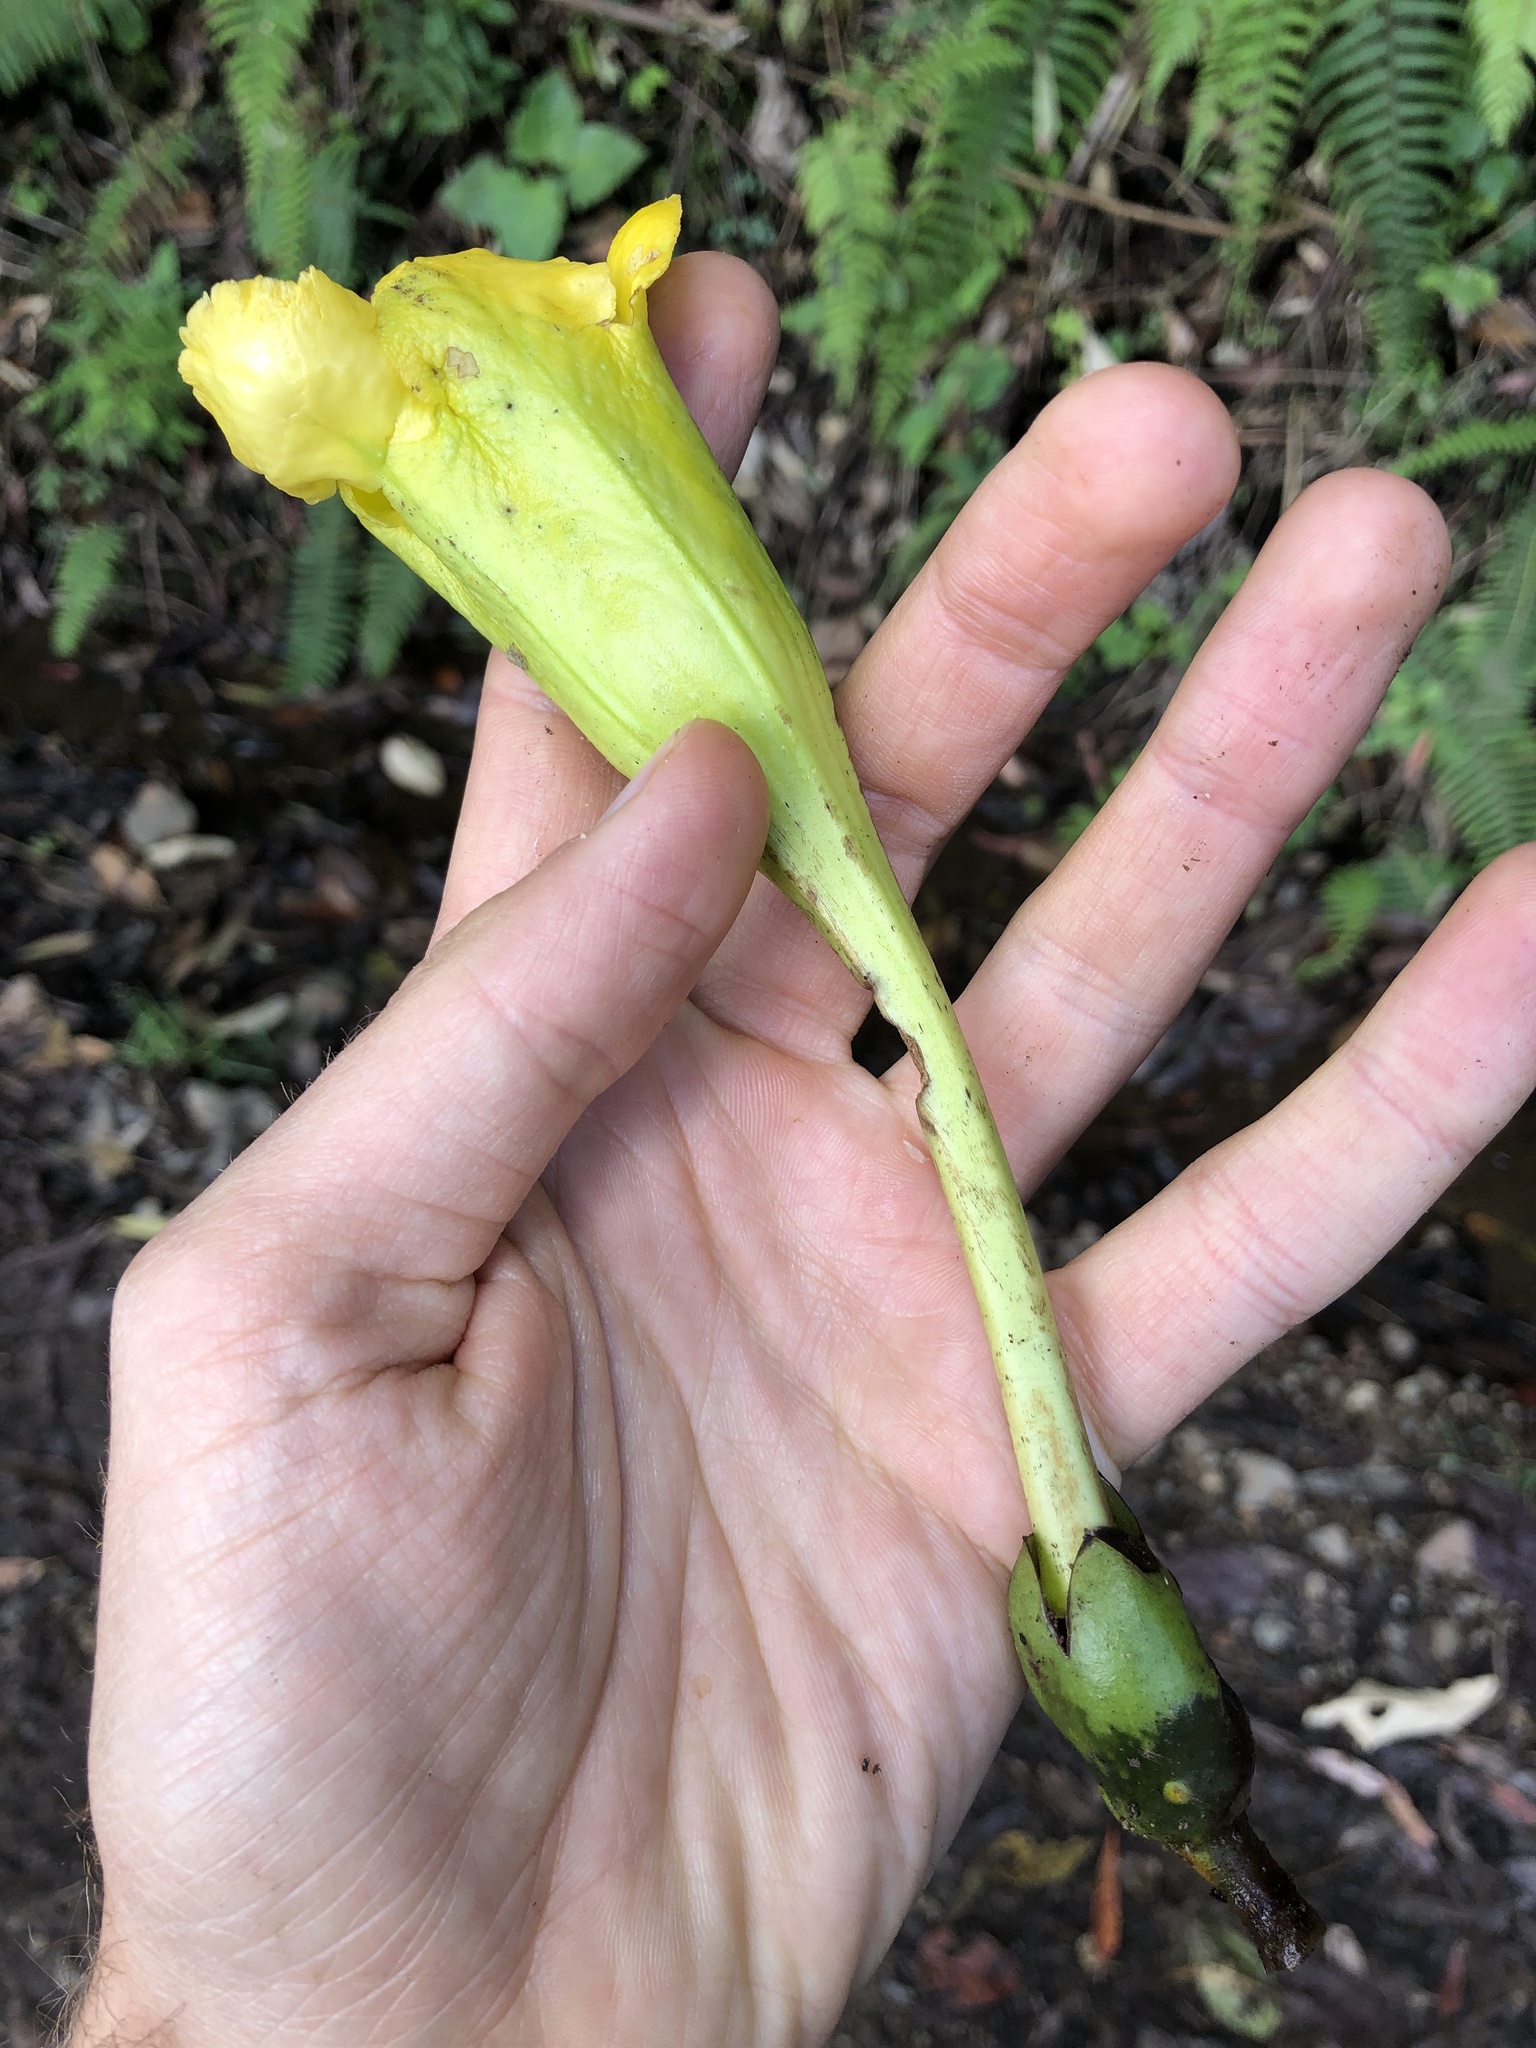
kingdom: Plantae
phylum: Tracheophyta
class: Magnoliopsida
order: Solanales
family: Solanaceae
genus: Schultesianthus
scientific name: Schultesianthus coriaceus
